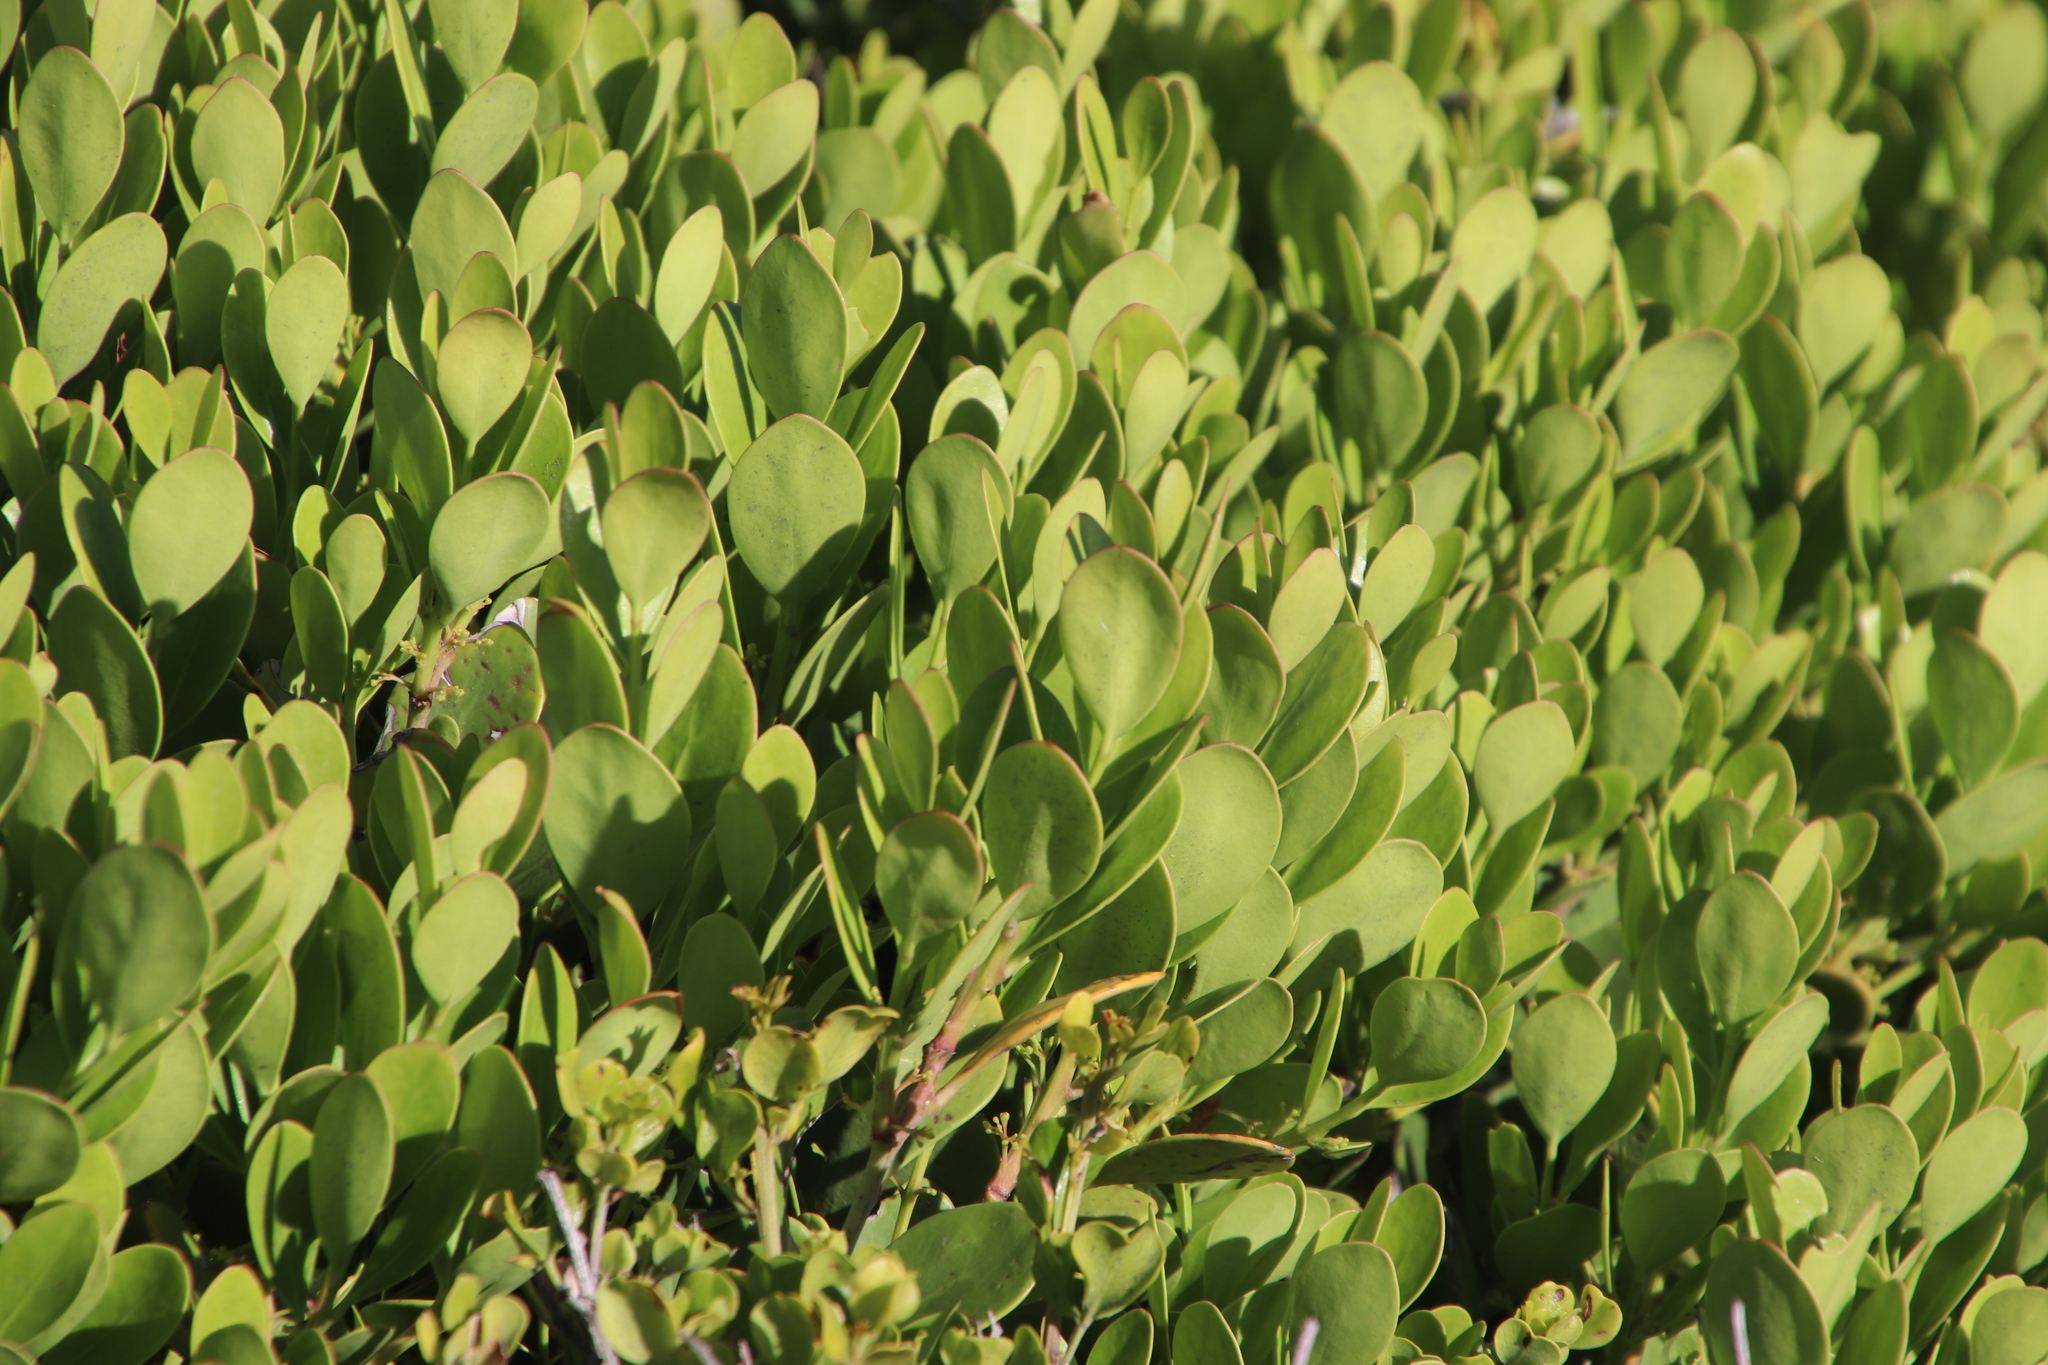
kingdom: Plantae
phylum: Tracheophyta
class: Magnoliopsida
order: Celastrales
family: Celastraceae
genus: Pterocelastrus
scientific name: Pterocelastrus tricuspidatus
